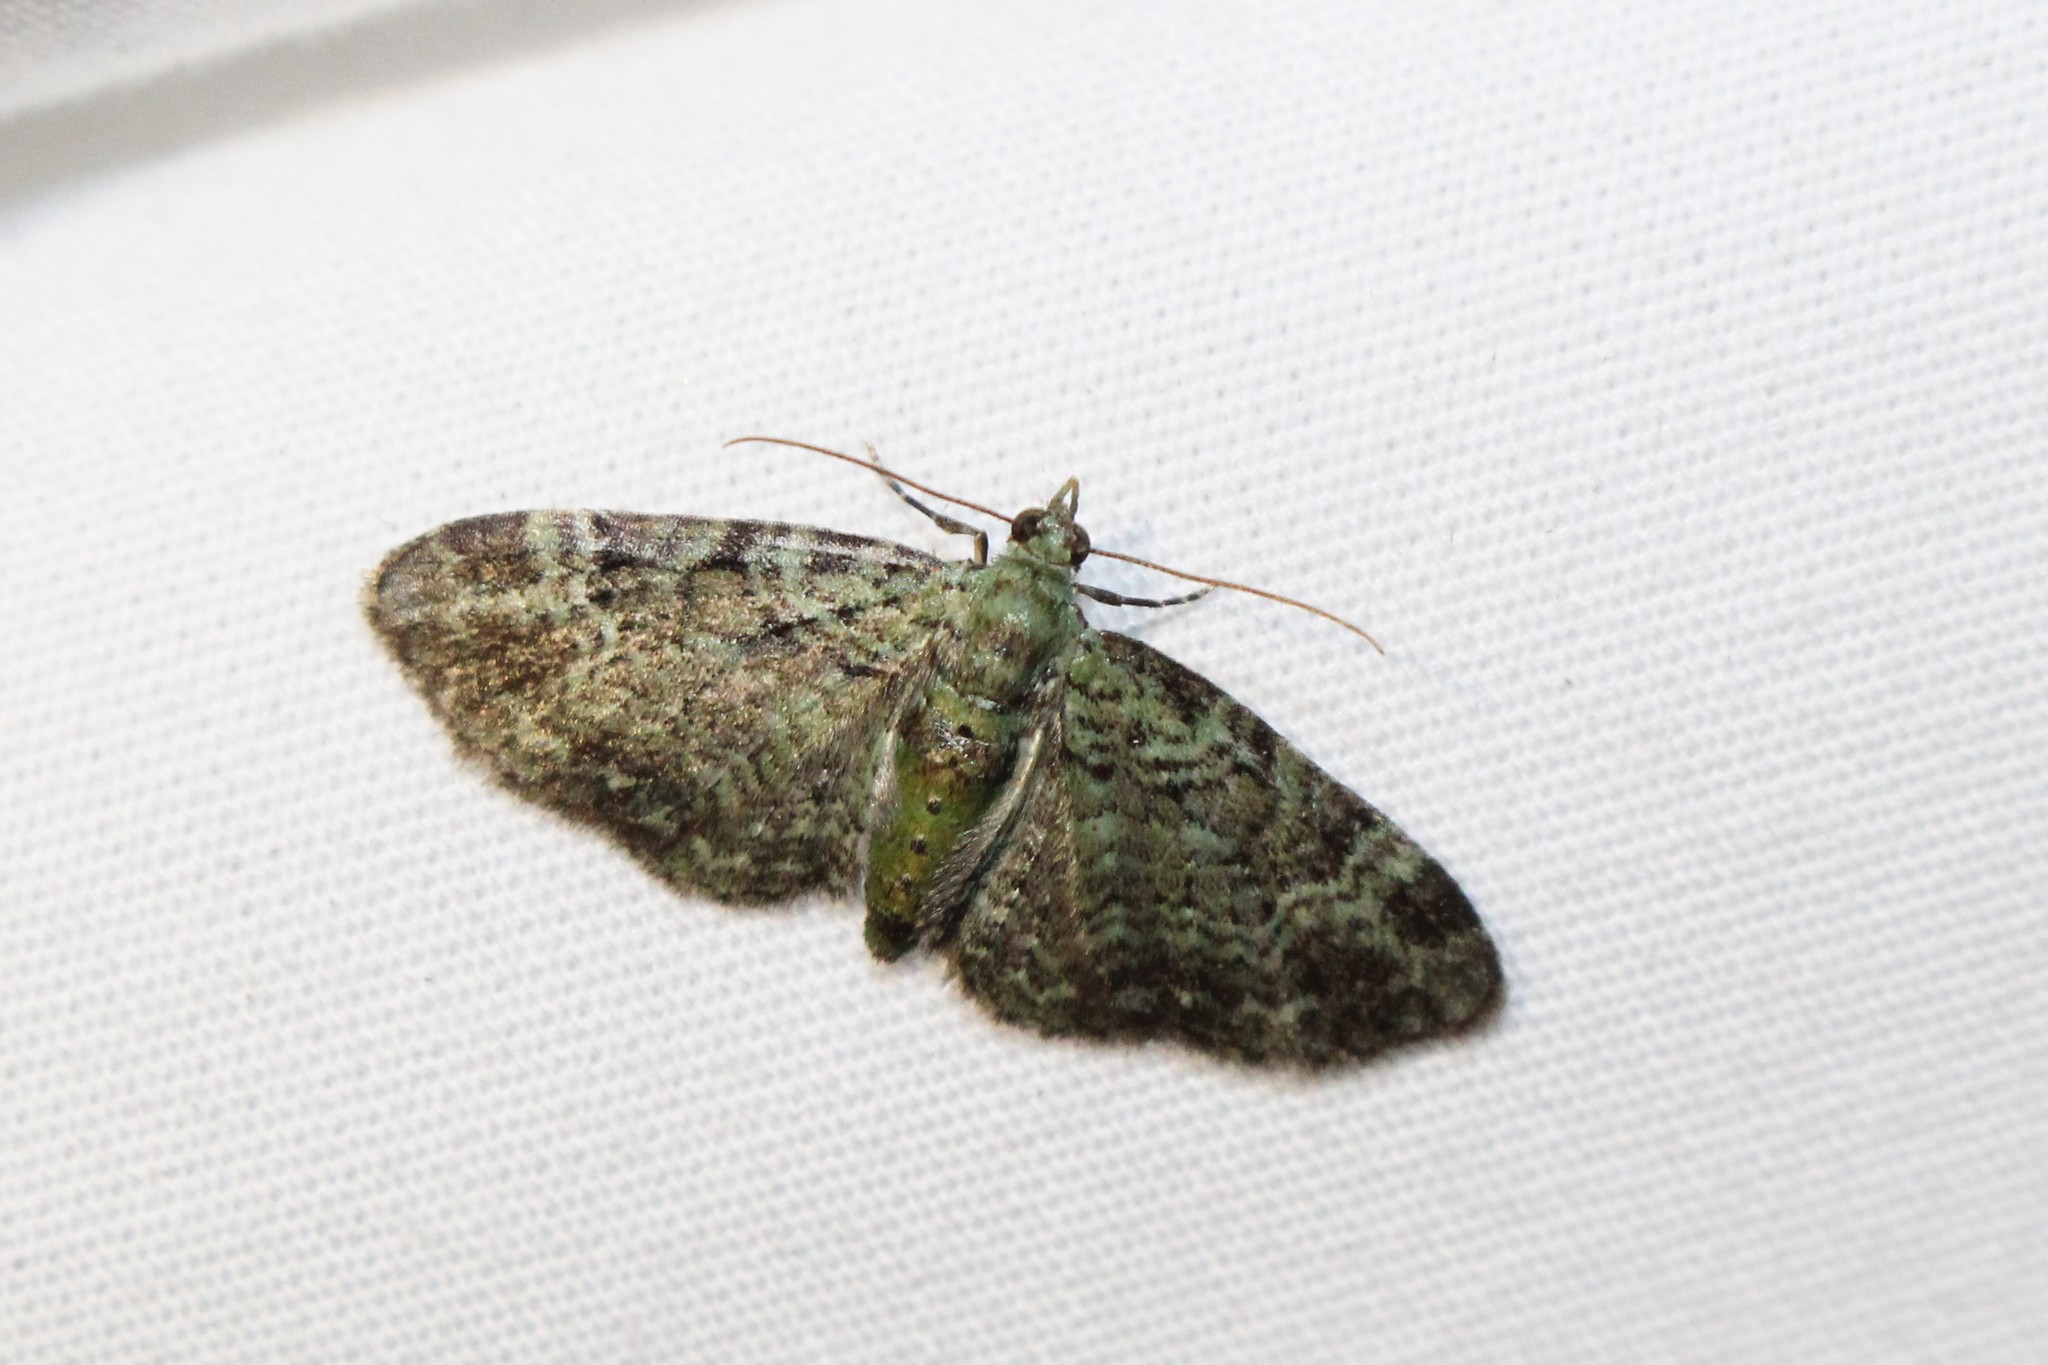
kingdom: Animalia
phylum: Arthropoda
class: Insecta
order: Lepidoptera
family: Geometridae
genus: Pasiphila
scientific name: Pasiphila rectangulata
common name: Green pug
